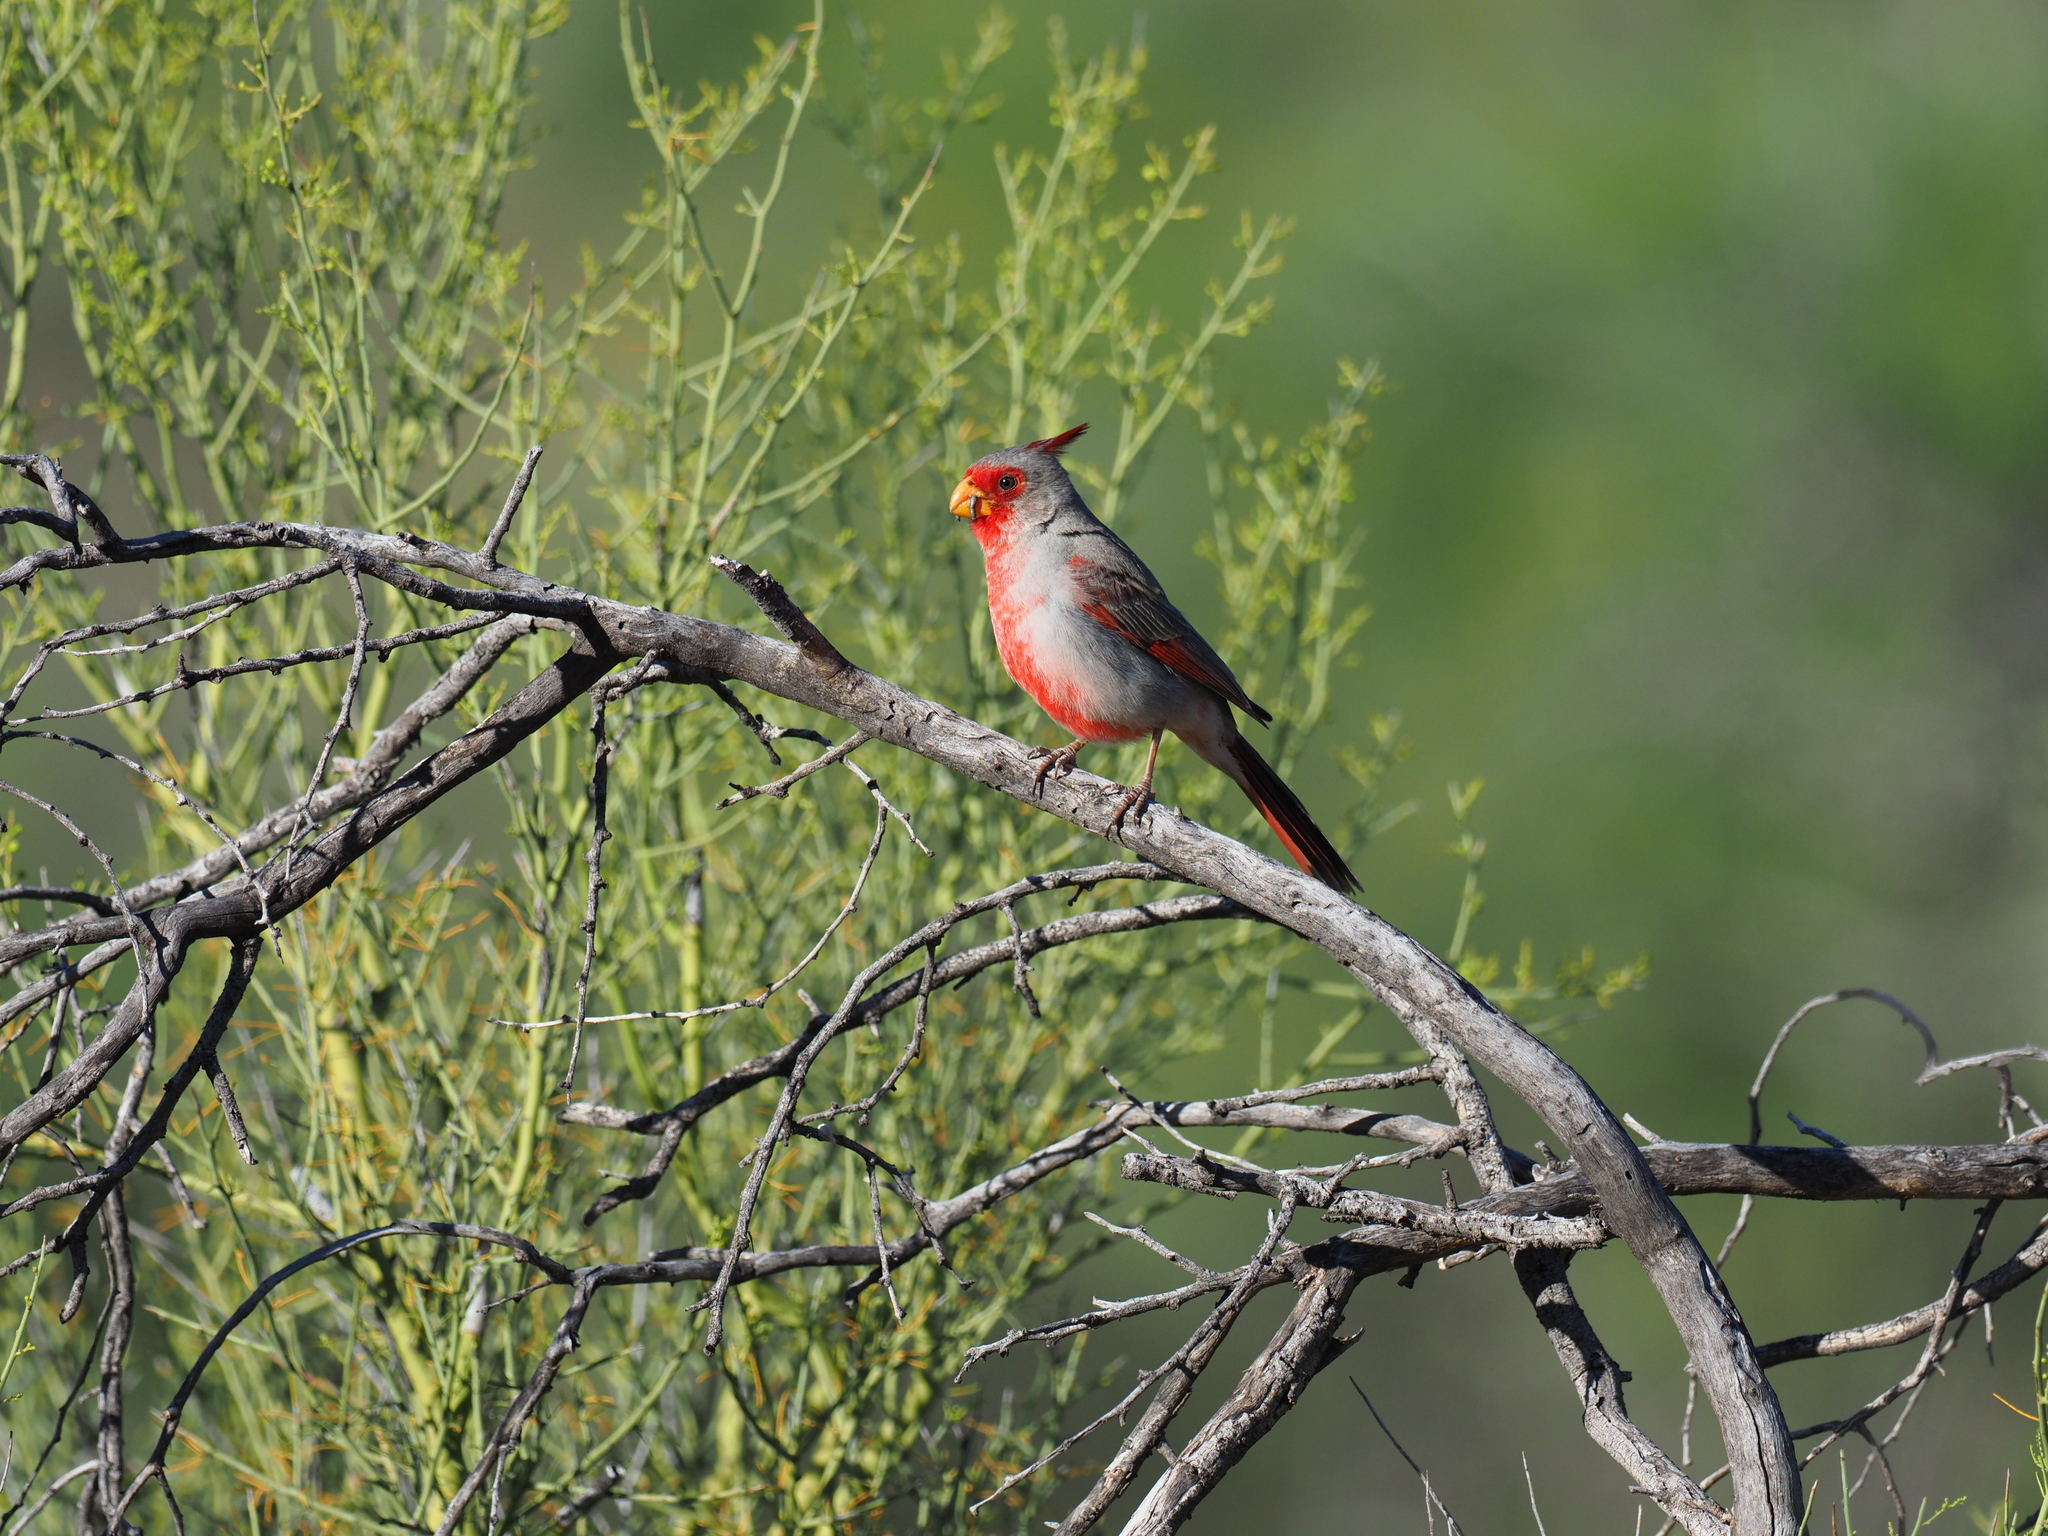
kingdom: Animalia
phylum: Chordata
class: Aves
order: Passeriformes
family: Cardinalidae
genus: Cardinalis
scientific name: Cardinalis sinuatus
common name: Pyrrhuloxia
